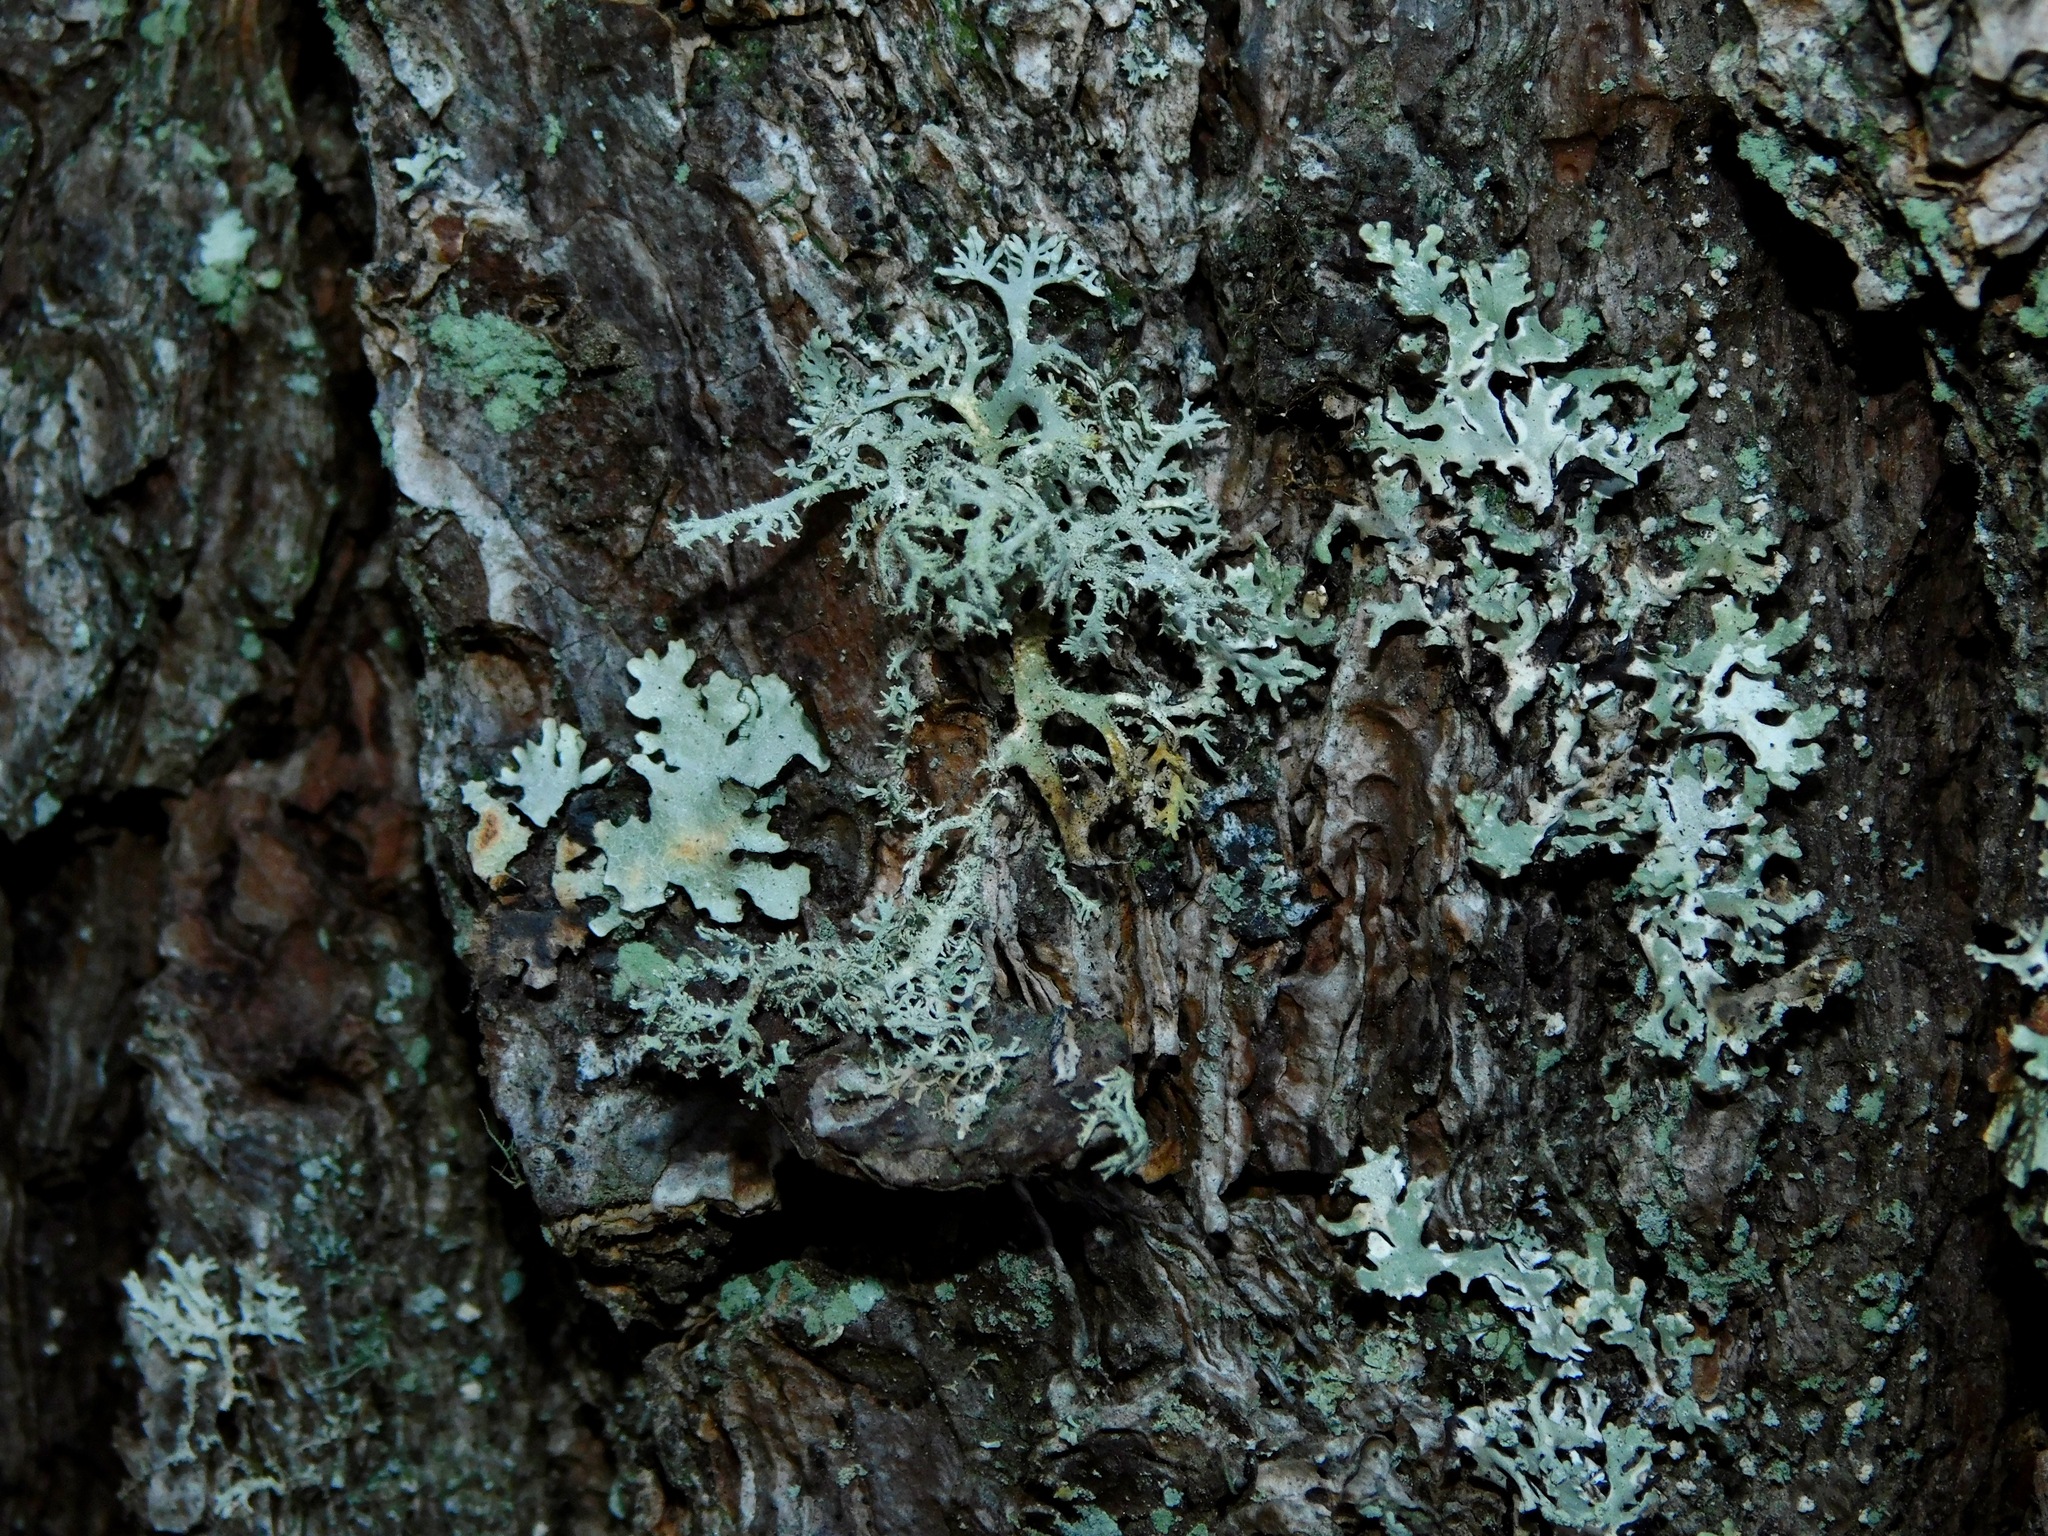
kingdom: Fungi
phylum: Ascomycota
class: Lecanoromycetes
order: Lecanorales
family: Parmeliaceae
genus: Imshaugia
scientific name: Imshaugia aleurites
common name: Salted starburst lichen
